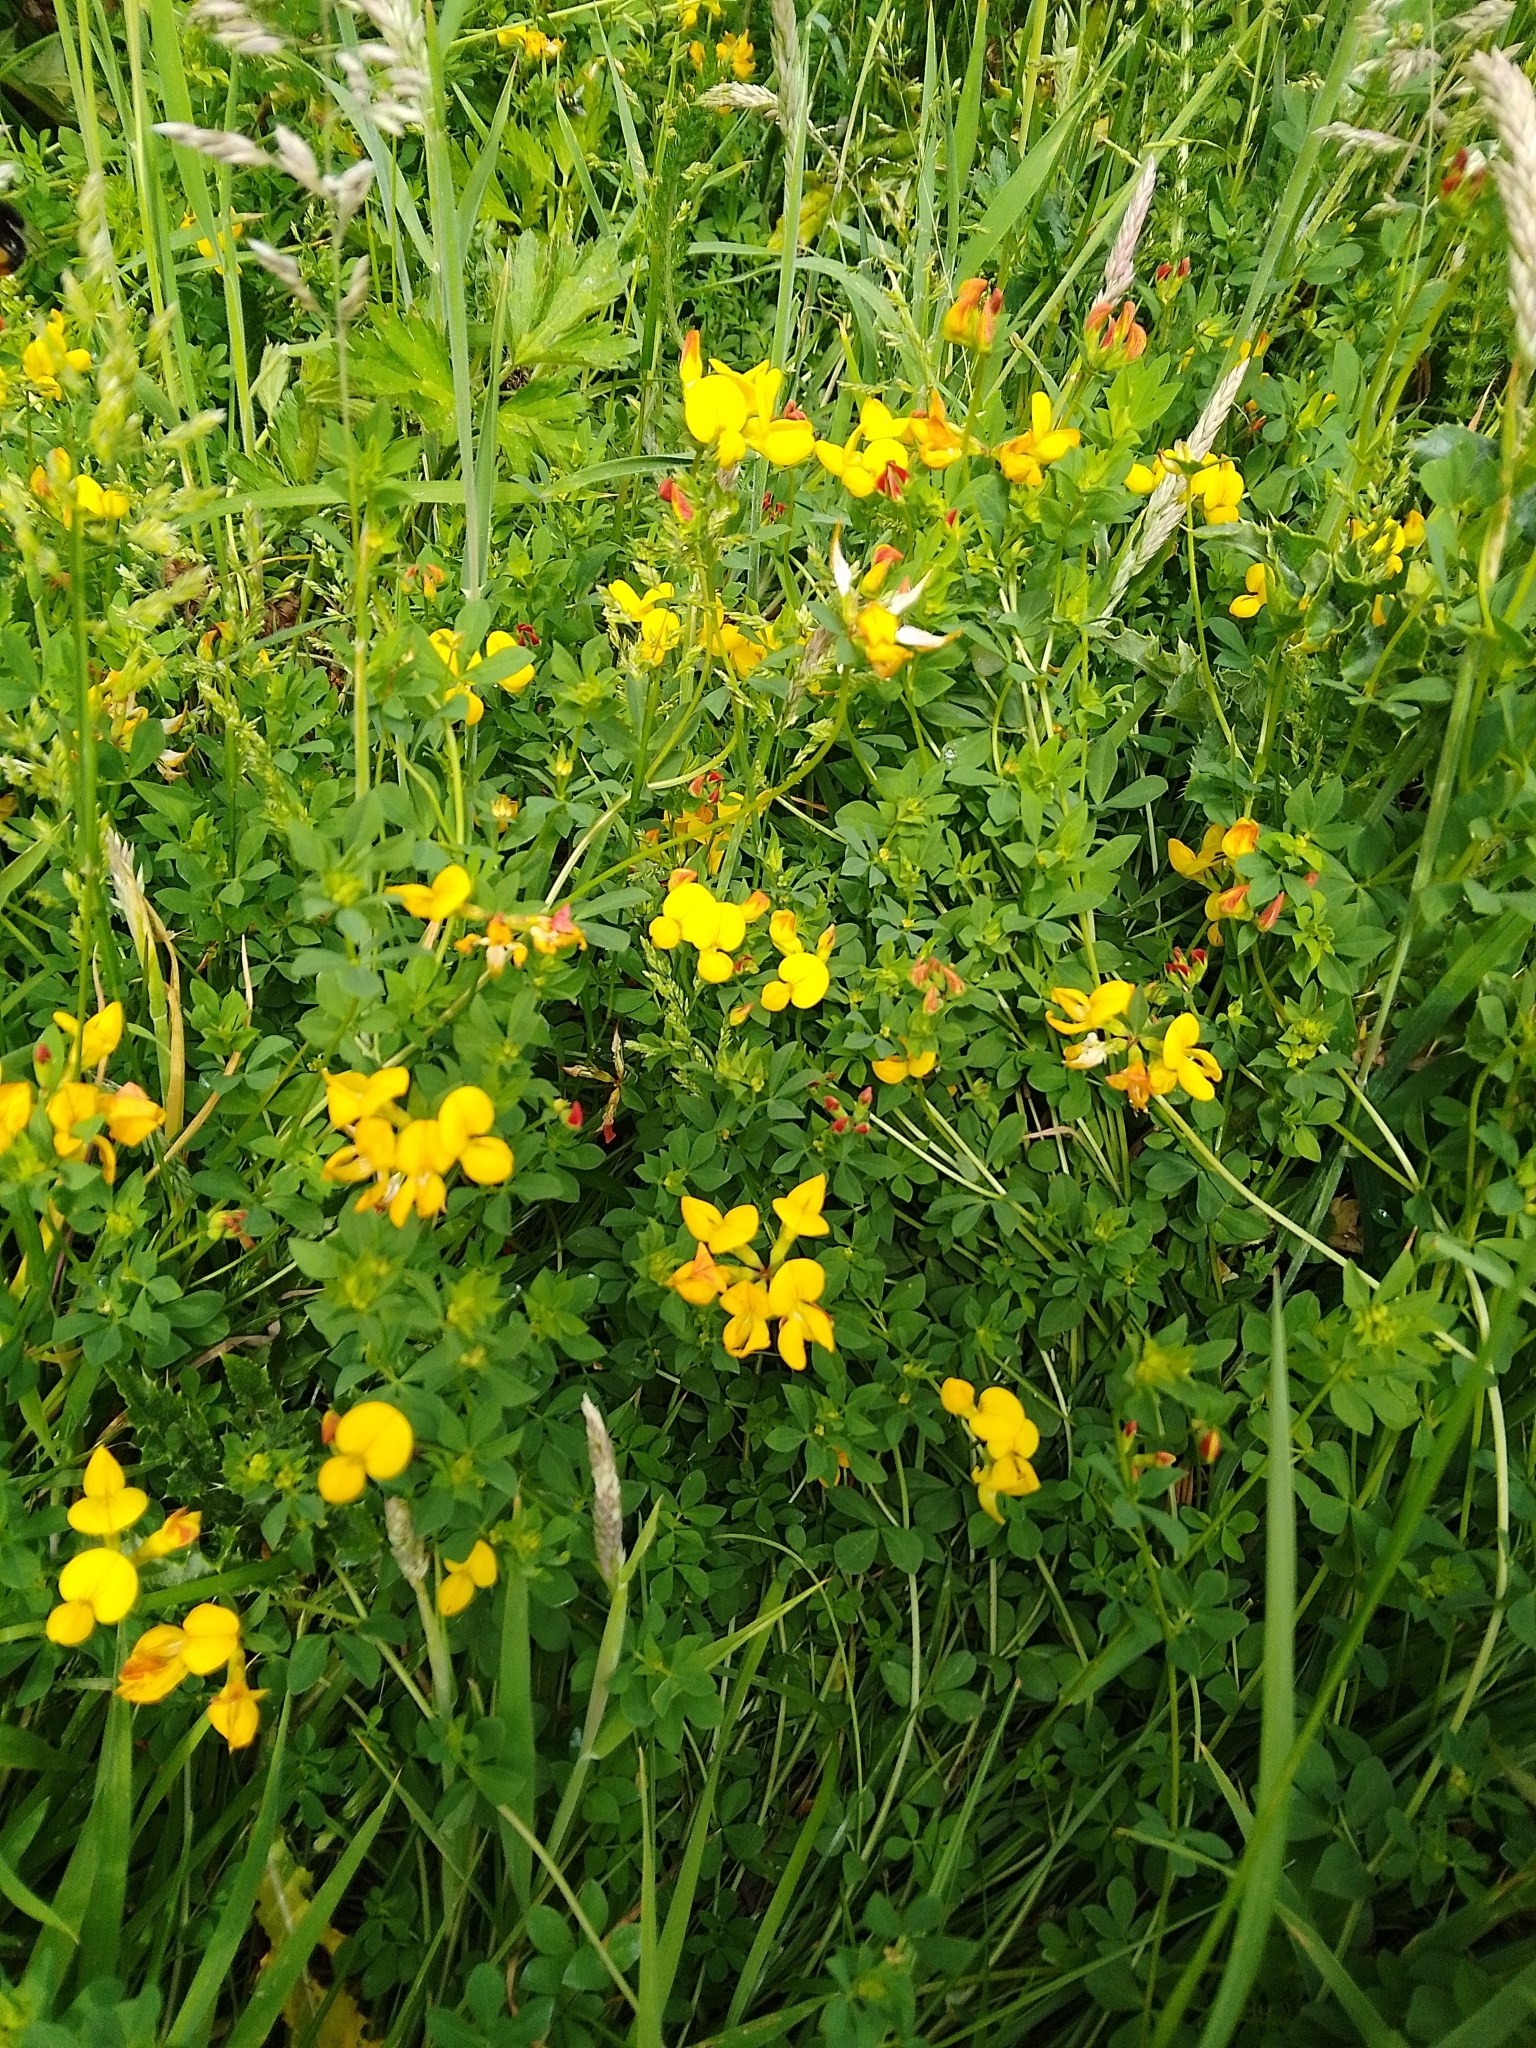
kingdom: Plantae
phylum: Tracheophyta
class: Magnoliopsida
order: Fabales
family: Fabaceae
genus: Lotus
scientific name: Lotus corniculatus
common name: Common bird's-foot-trefoil
